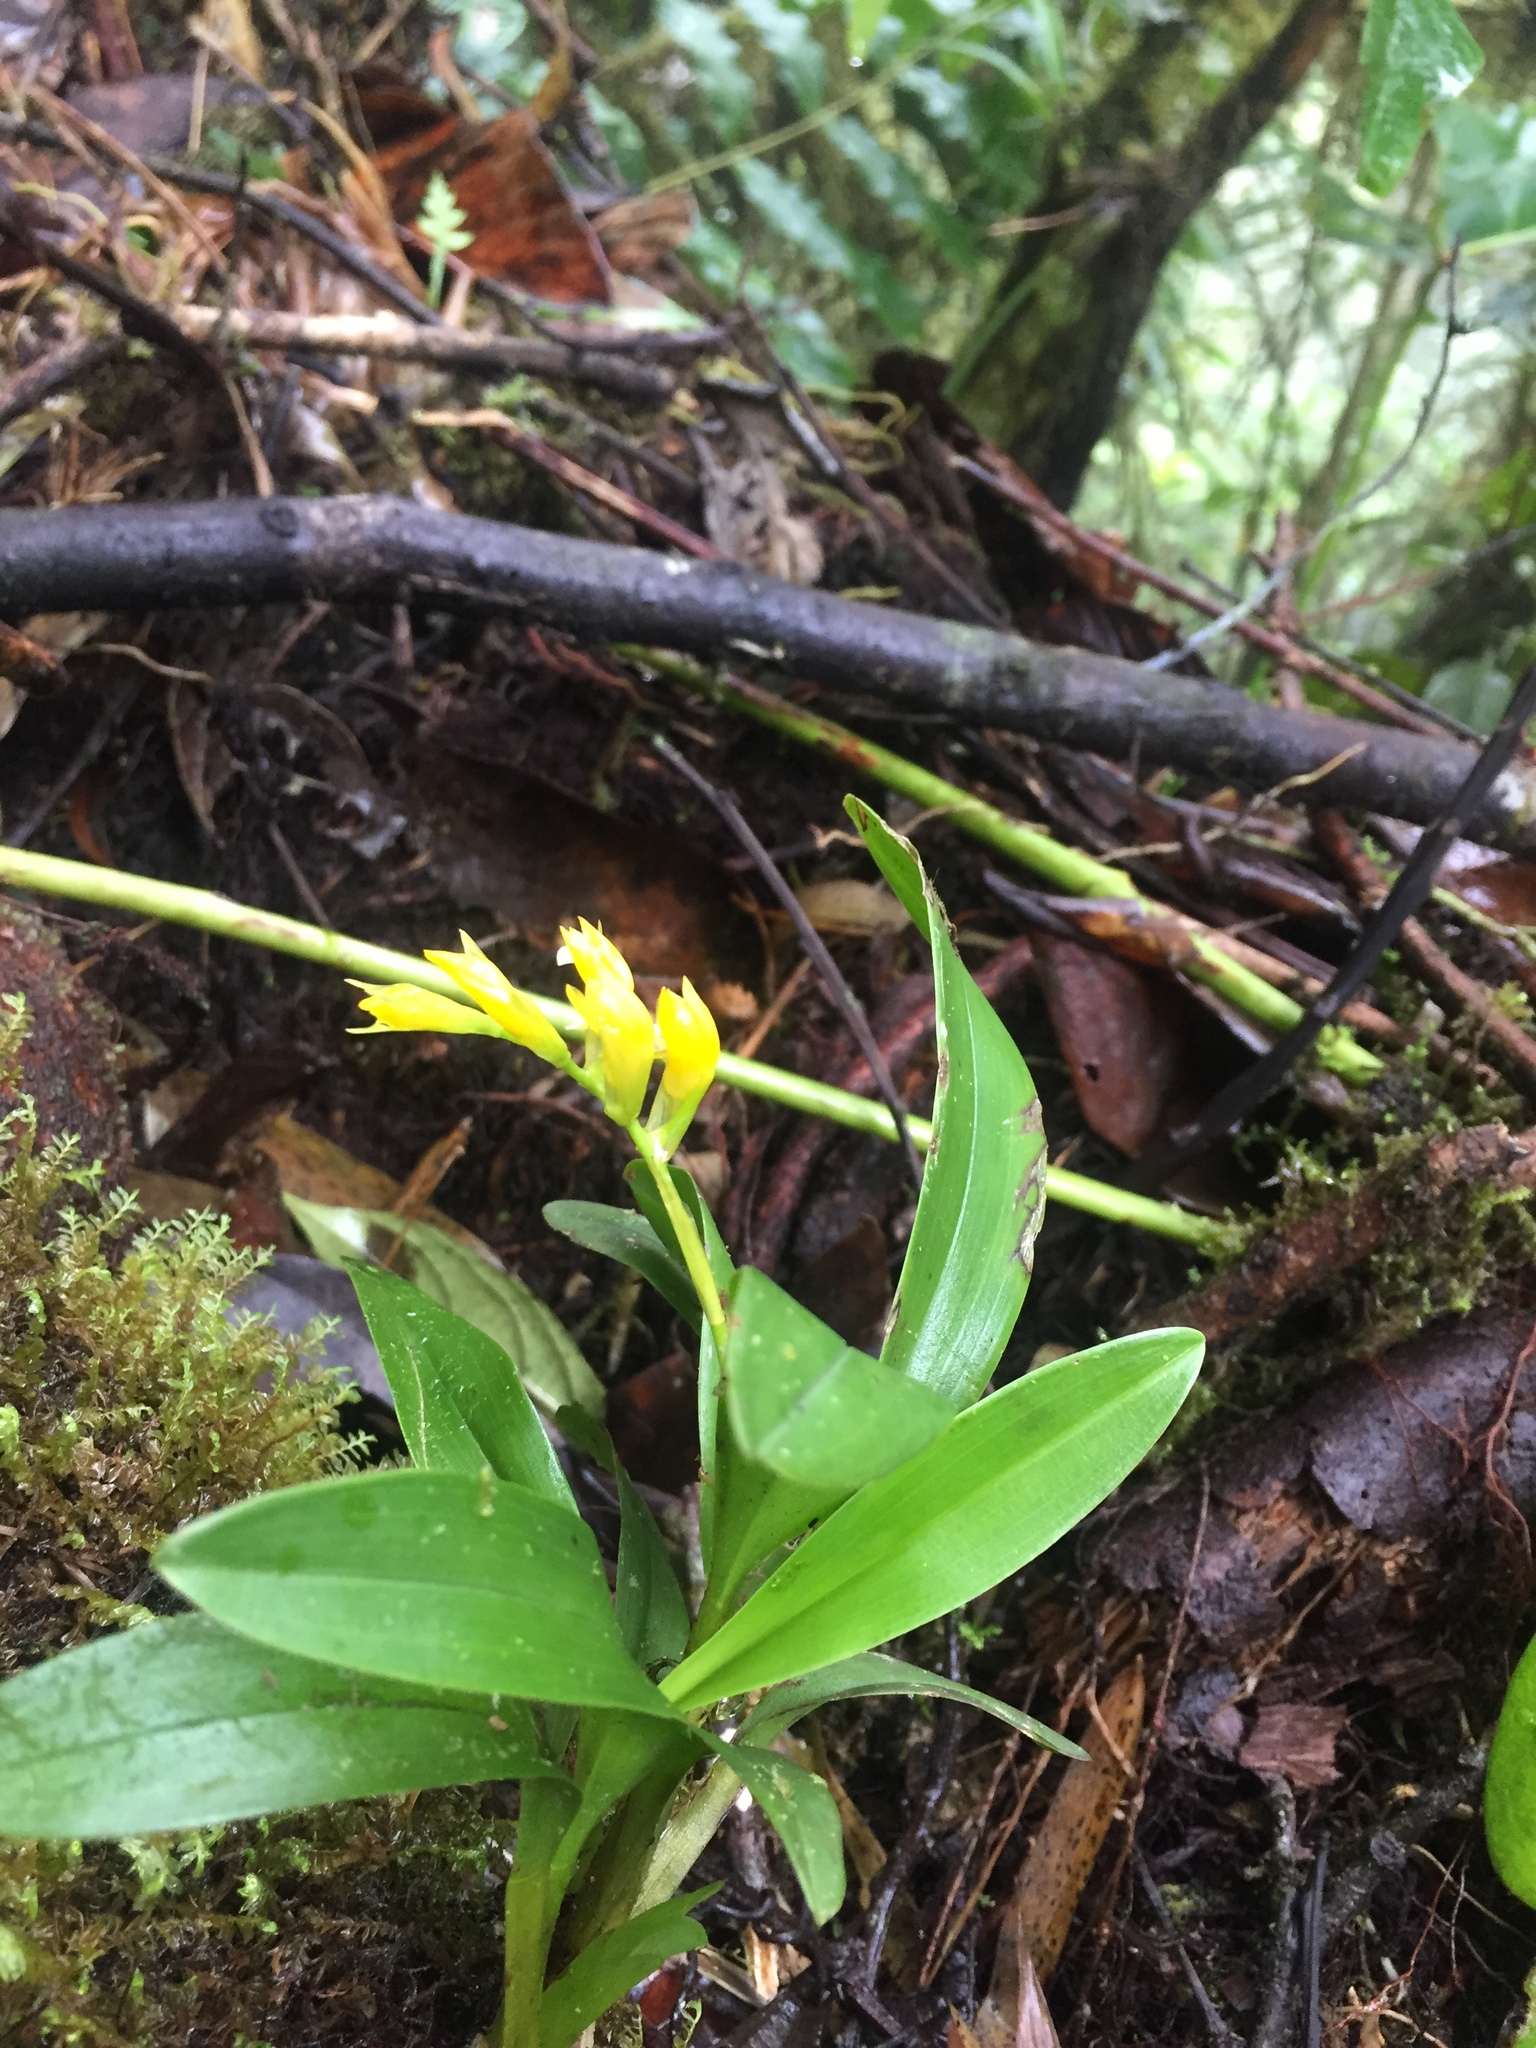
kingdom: Plantae
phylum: Tracheophyta
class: Liliopsida
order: Asparagales
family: Orchidaceae
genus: Brassia
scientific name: Brassia andina
